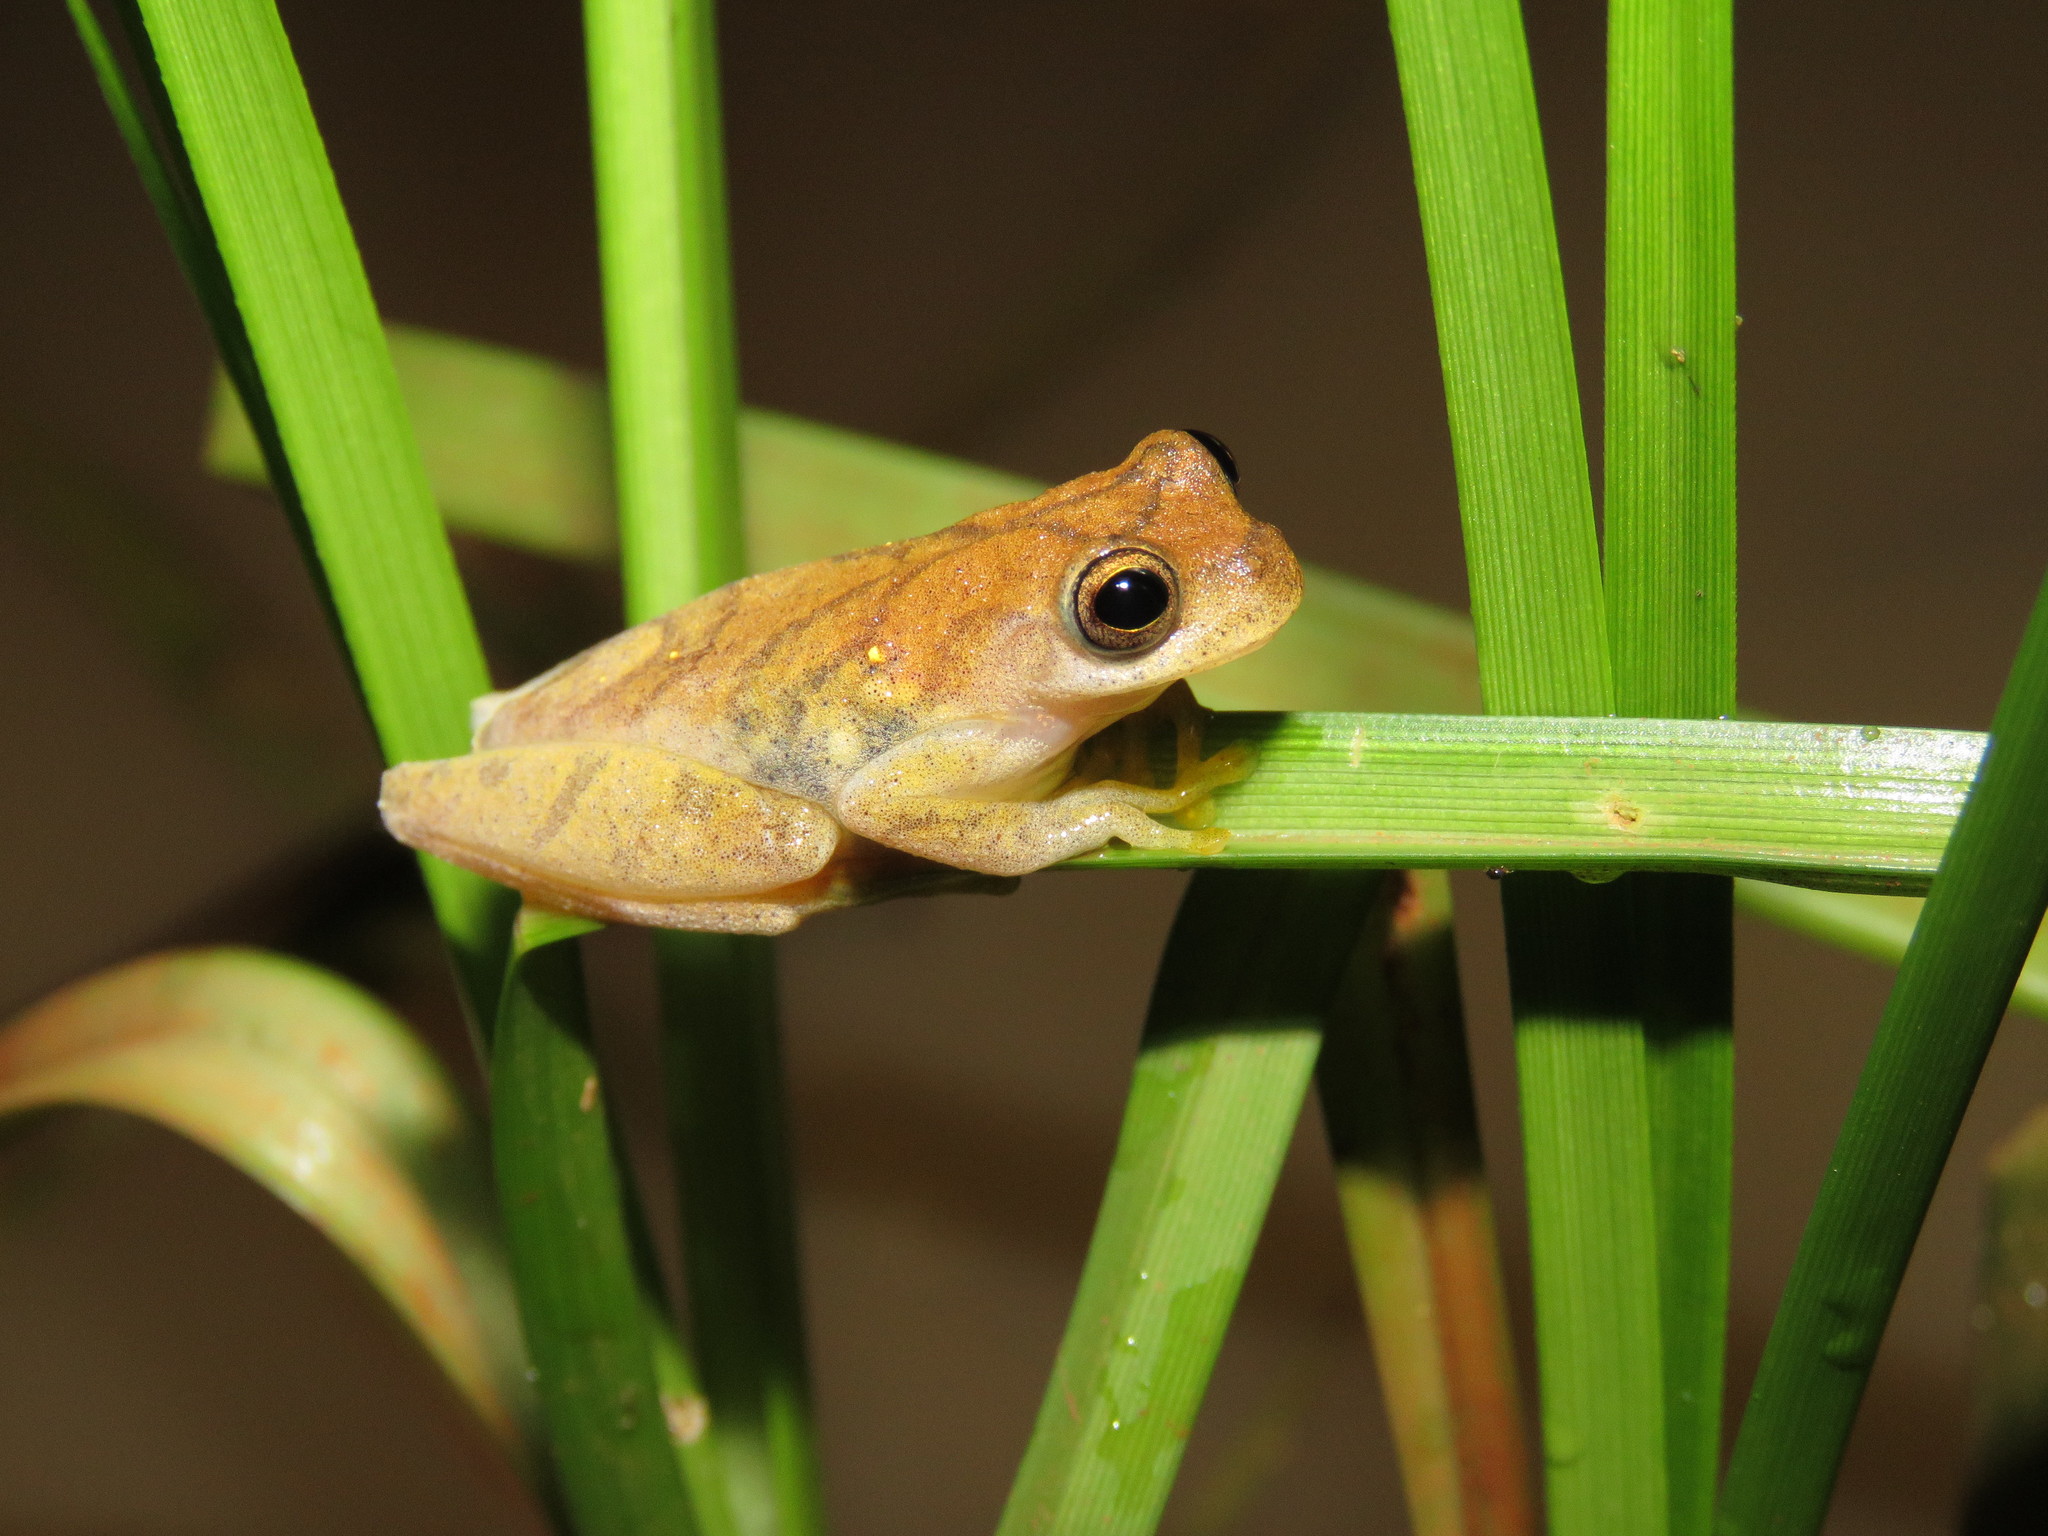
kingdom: Animalia
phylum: Chordata
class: Amphibia
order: Anura
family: Hylidae
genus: Dendropsophus
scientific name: Dendropsophus leali
